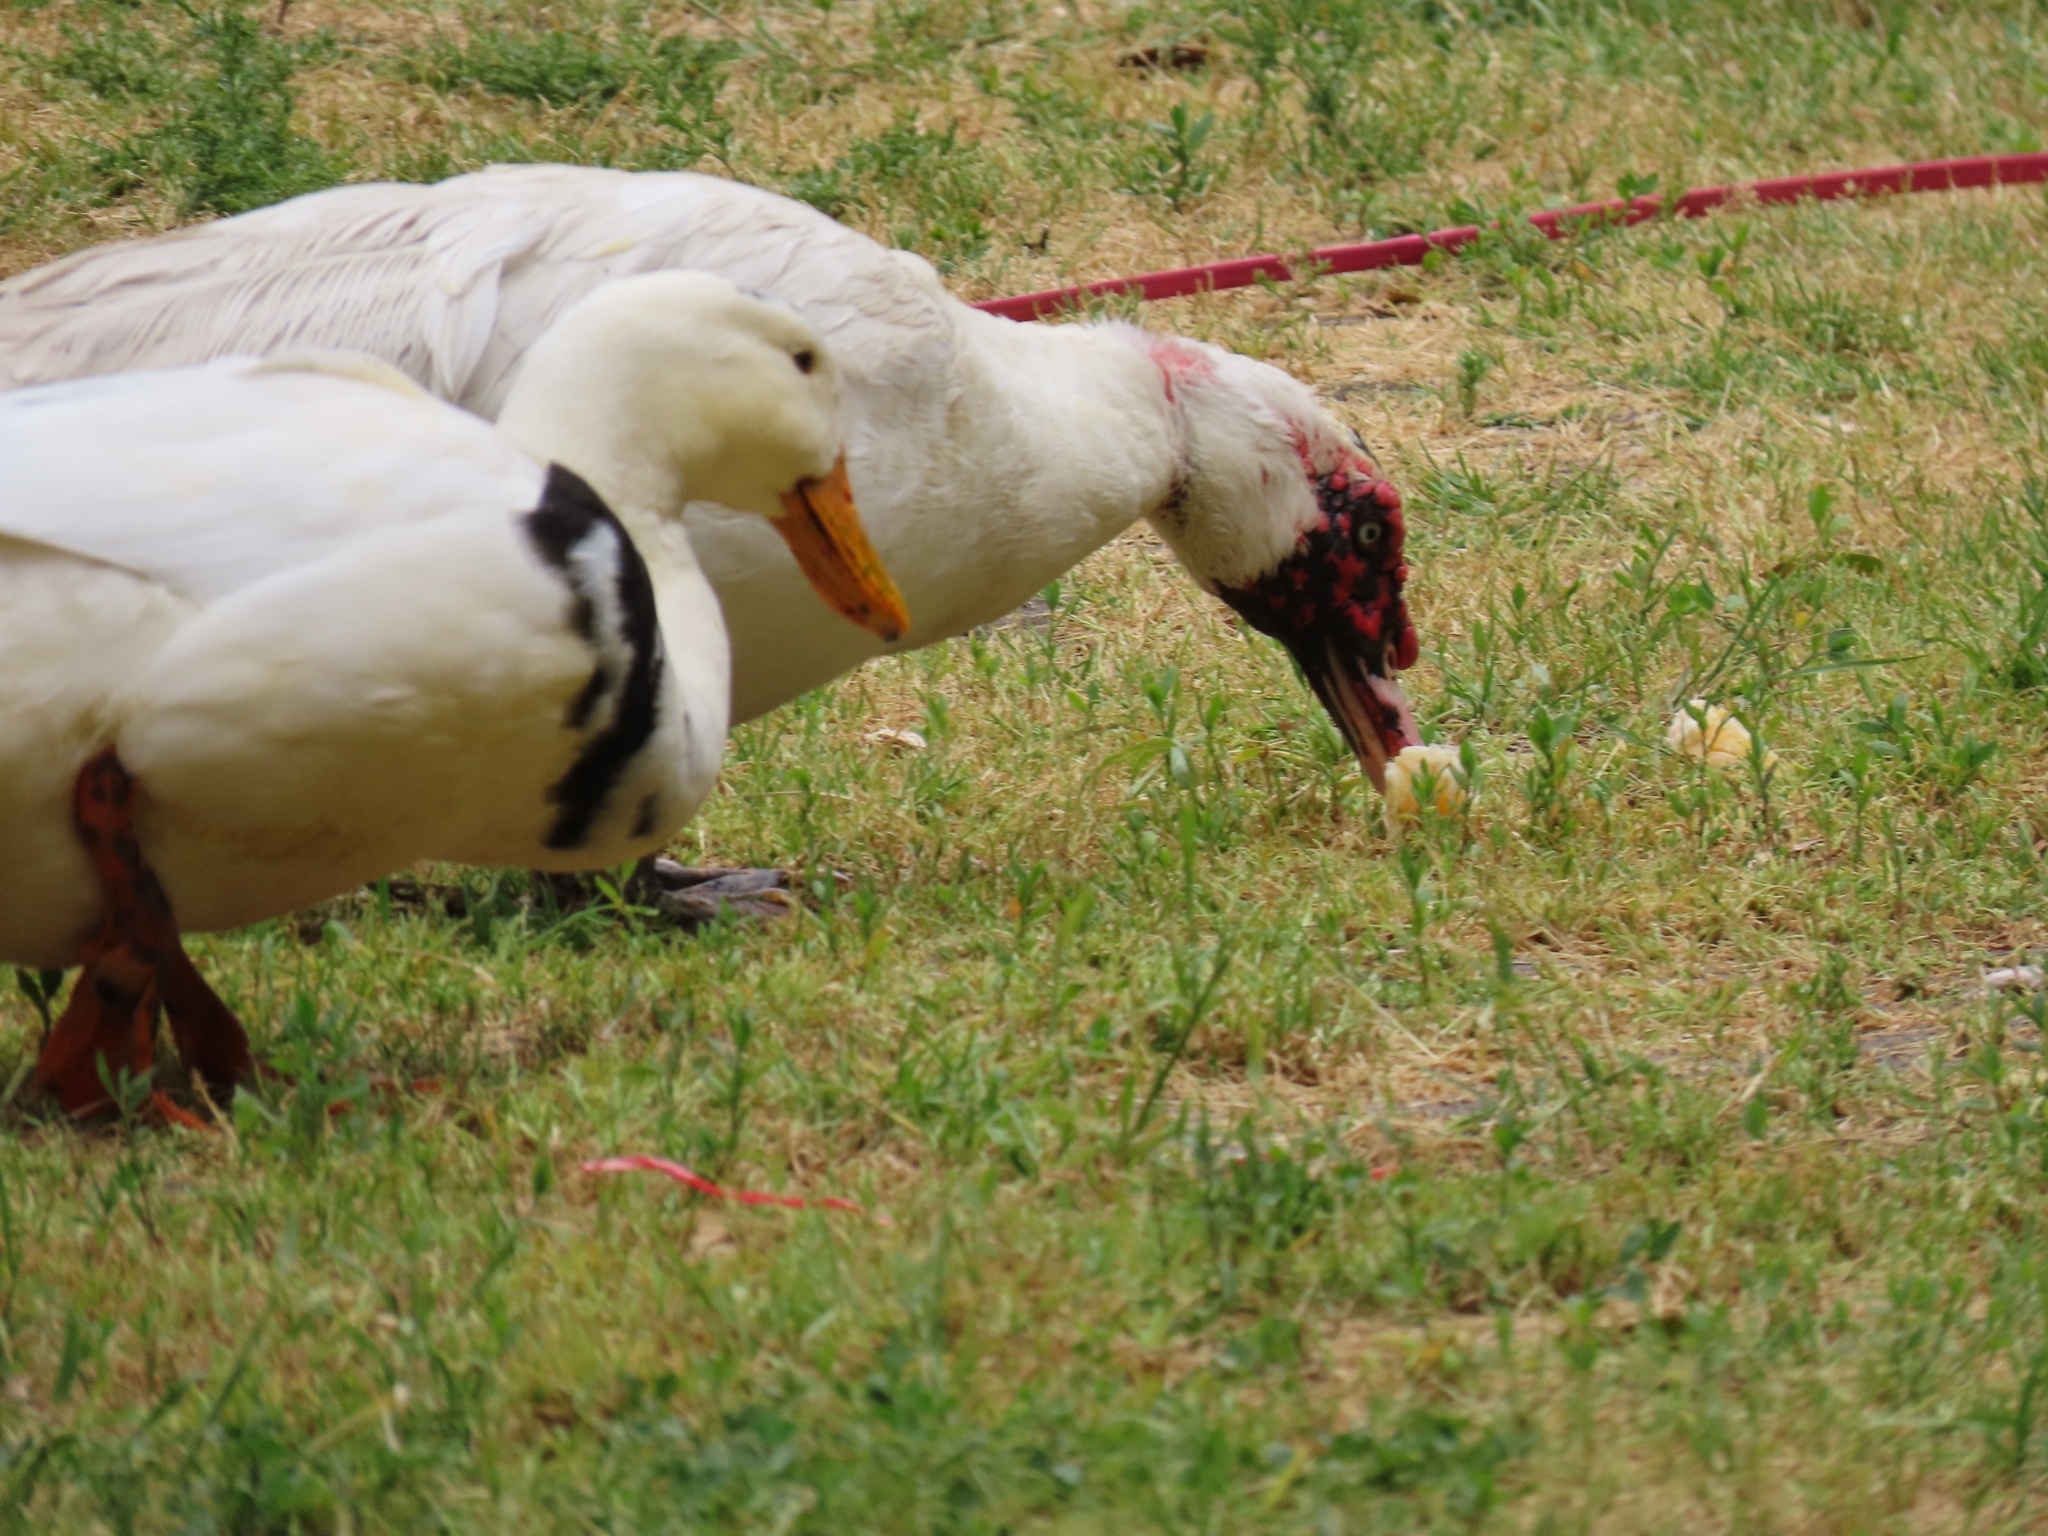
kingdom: Animalia
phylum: Chordata
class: Aves
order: Anseriformes
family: Anatidae
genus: Cairina
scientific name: Cairina moschata
